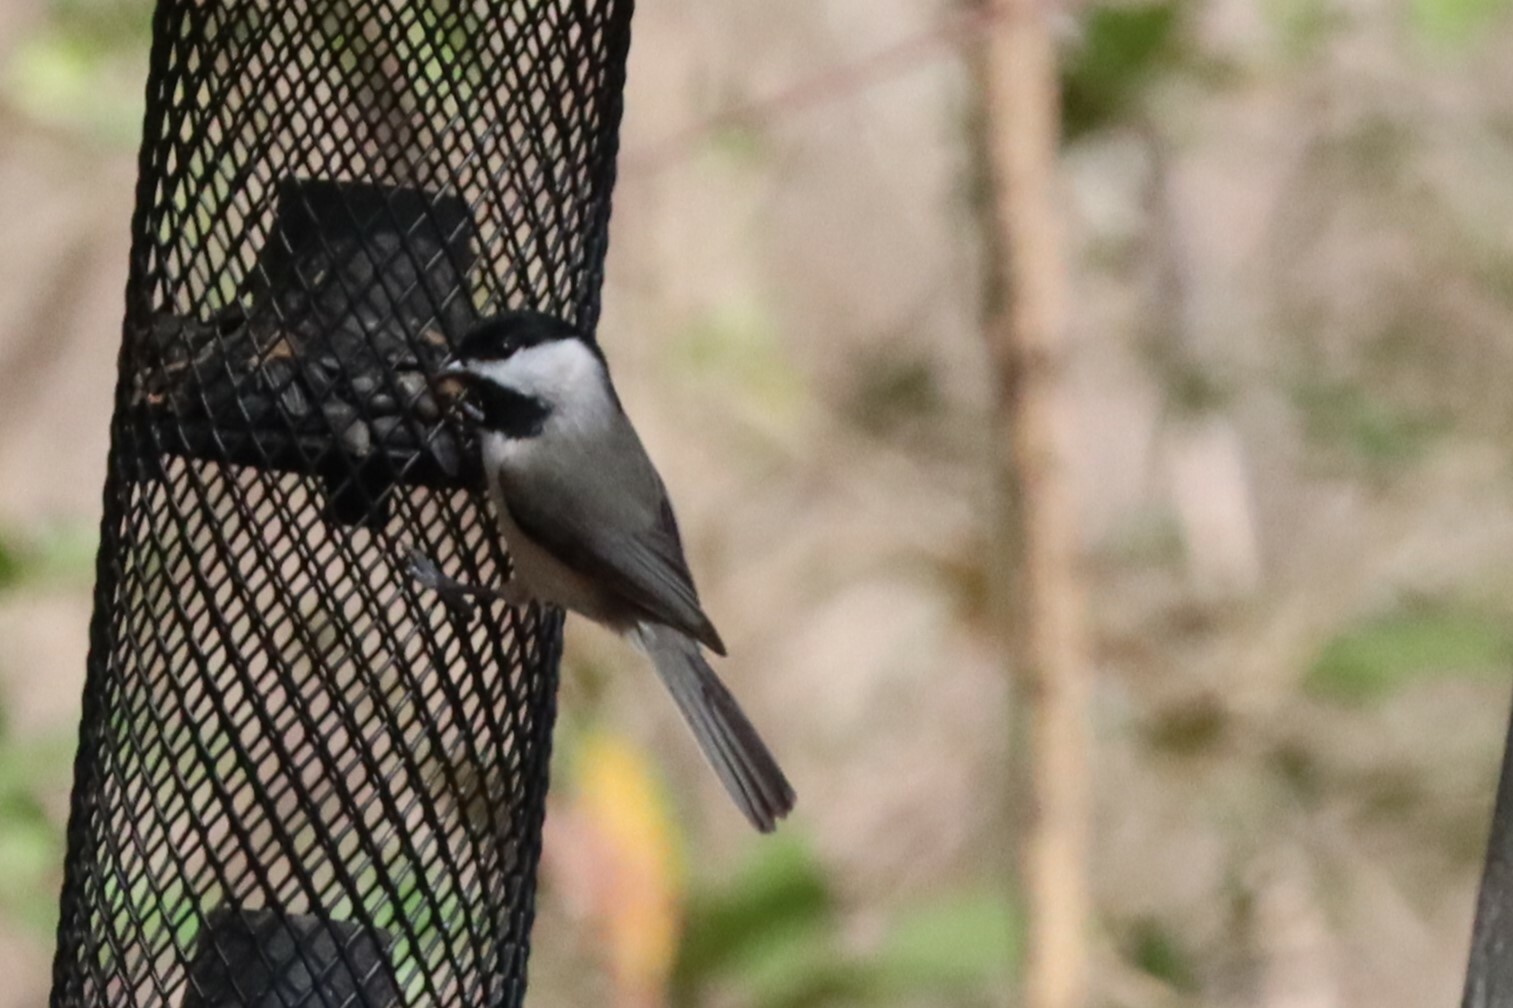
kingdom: Animalia
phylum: Chordata
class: Aves
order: Passeriformes
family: Paridae
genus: Poecile
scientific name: Poecile carolinensis
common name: Carolina chickadee
